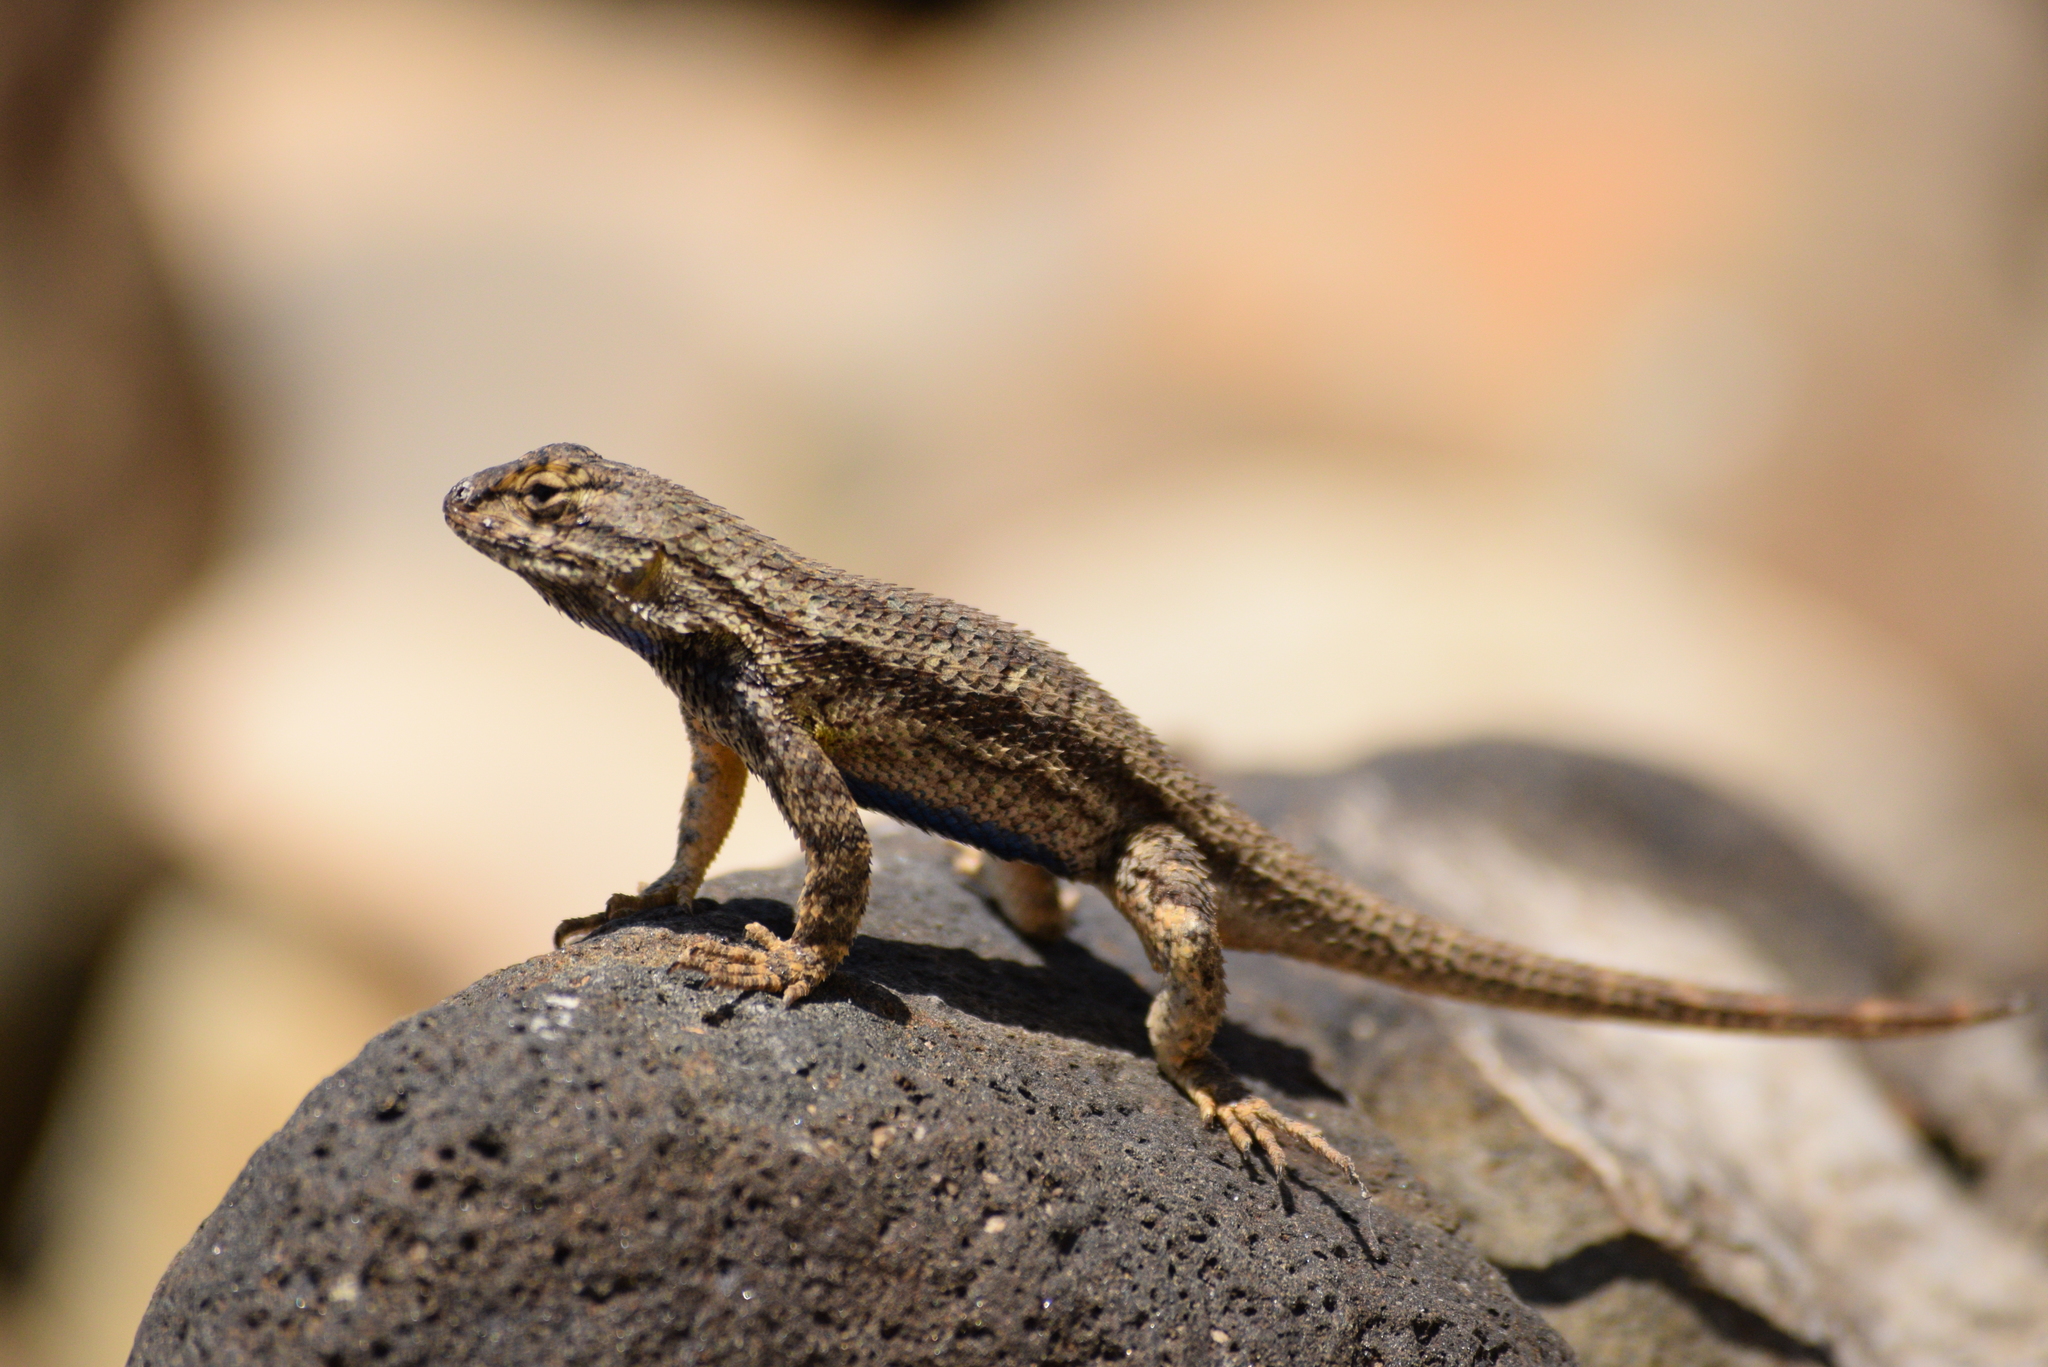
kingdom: Animalia
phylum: Chordata
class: Squamata
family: Phrynosomatidae
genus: Sceloporus
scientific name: Sceloporus occidentalis
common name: Western fence lizard
